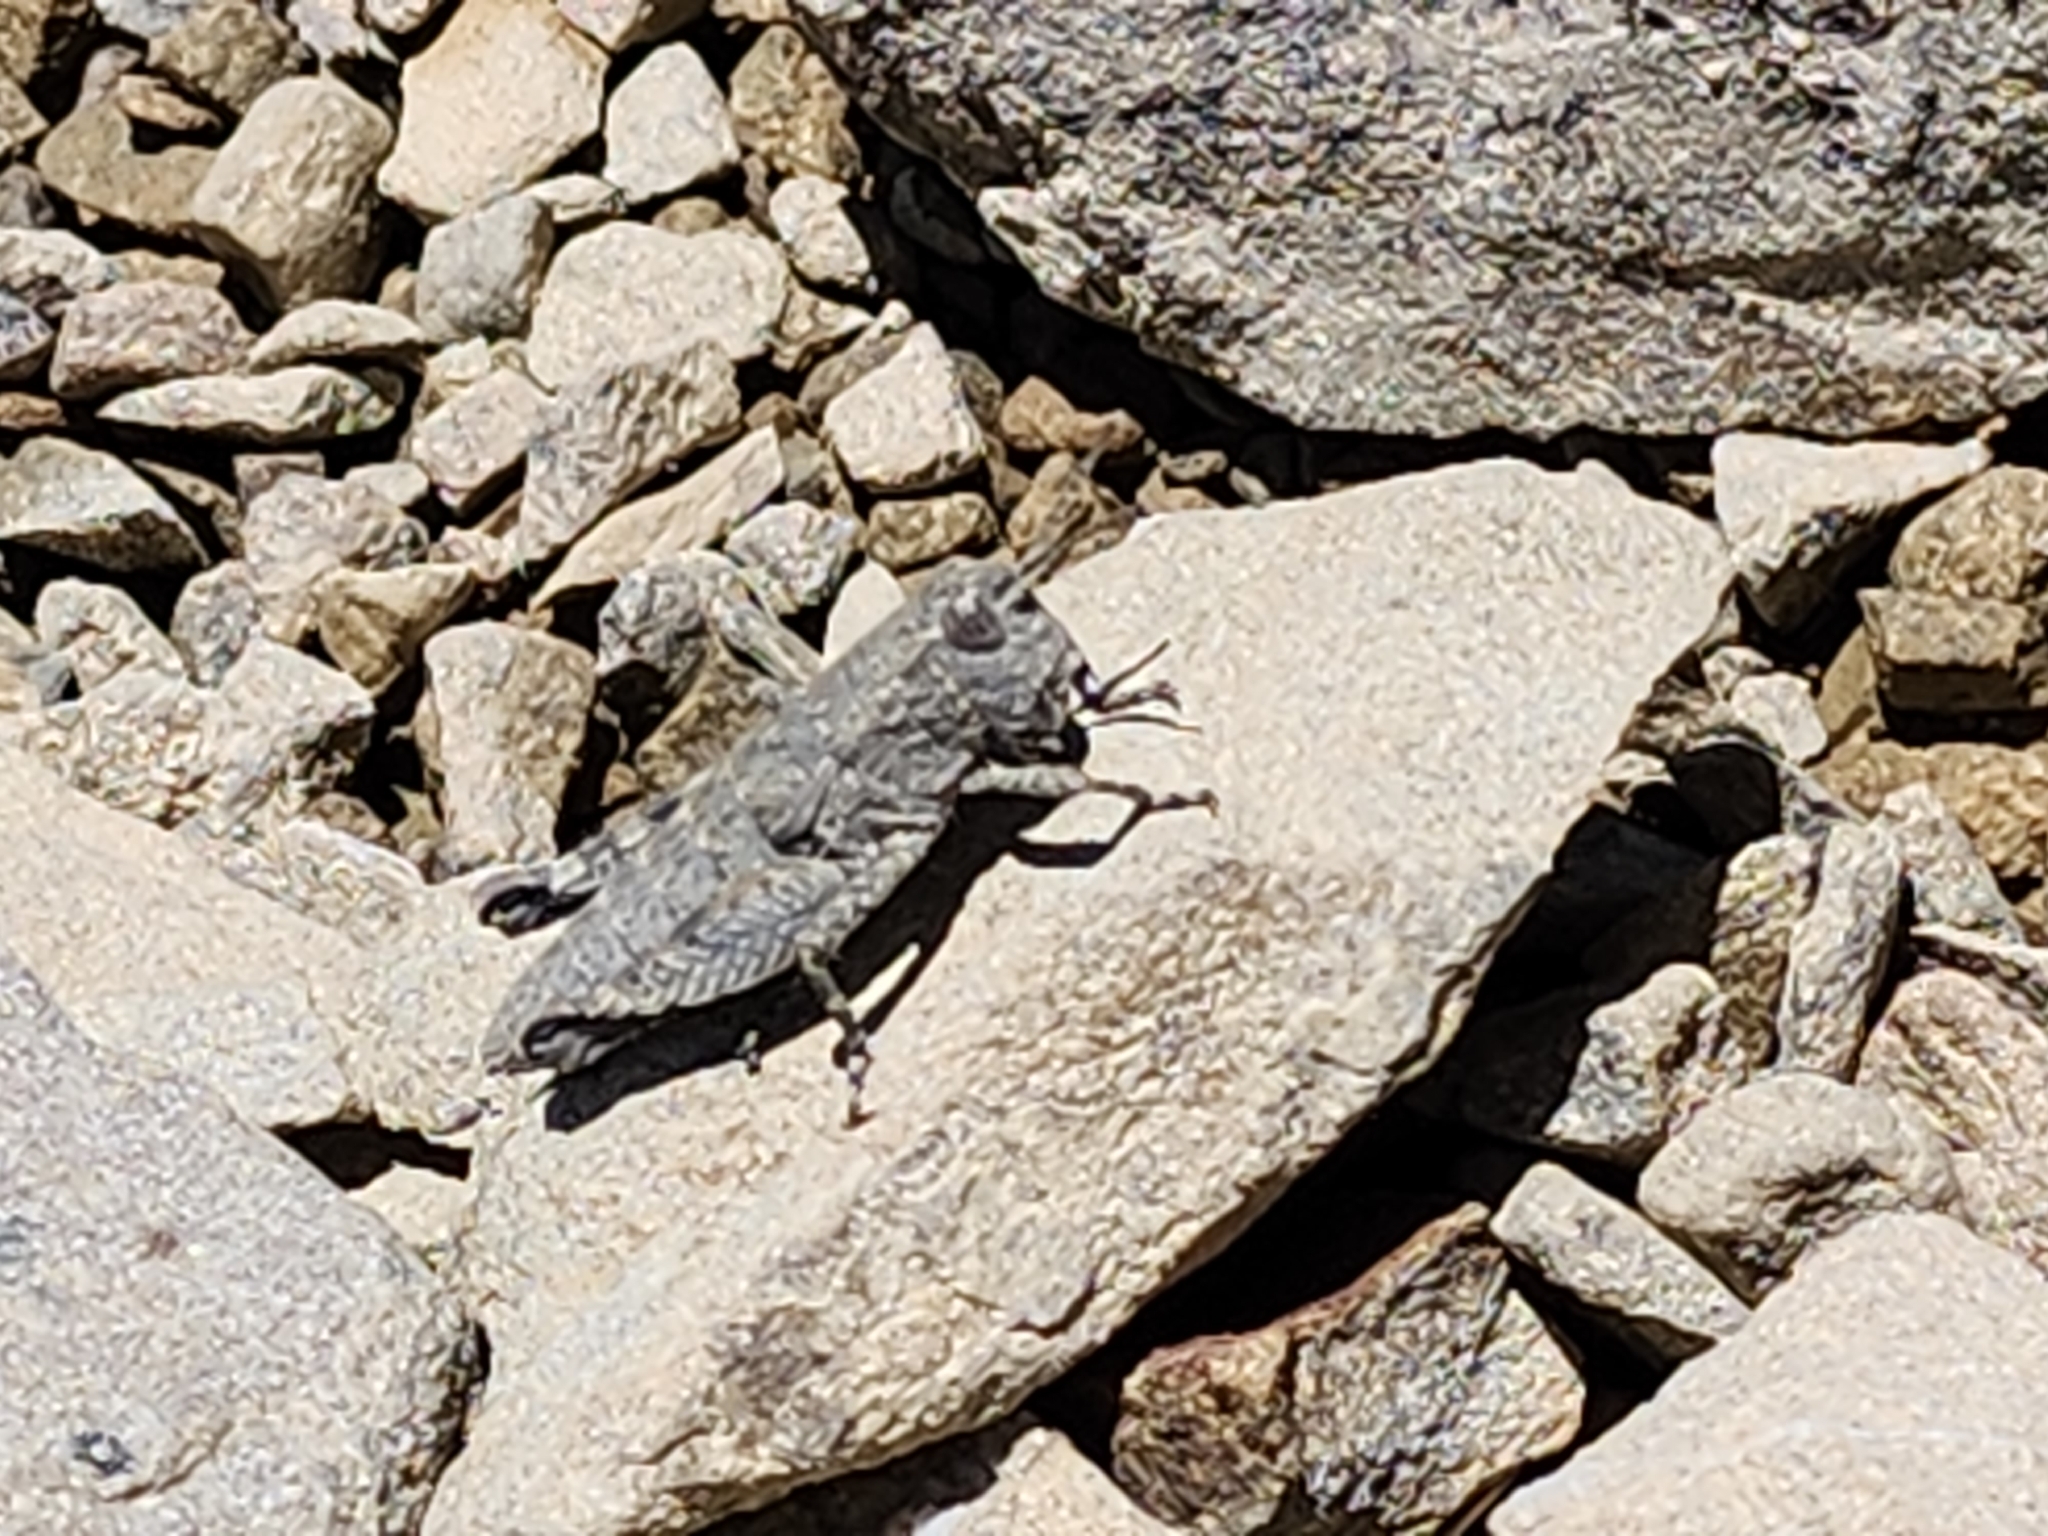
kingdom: Animalia
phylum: Arthropoda
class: Insecta
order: Orthoptera
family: Acrididae
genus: Sigaus
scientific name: Sigaus
